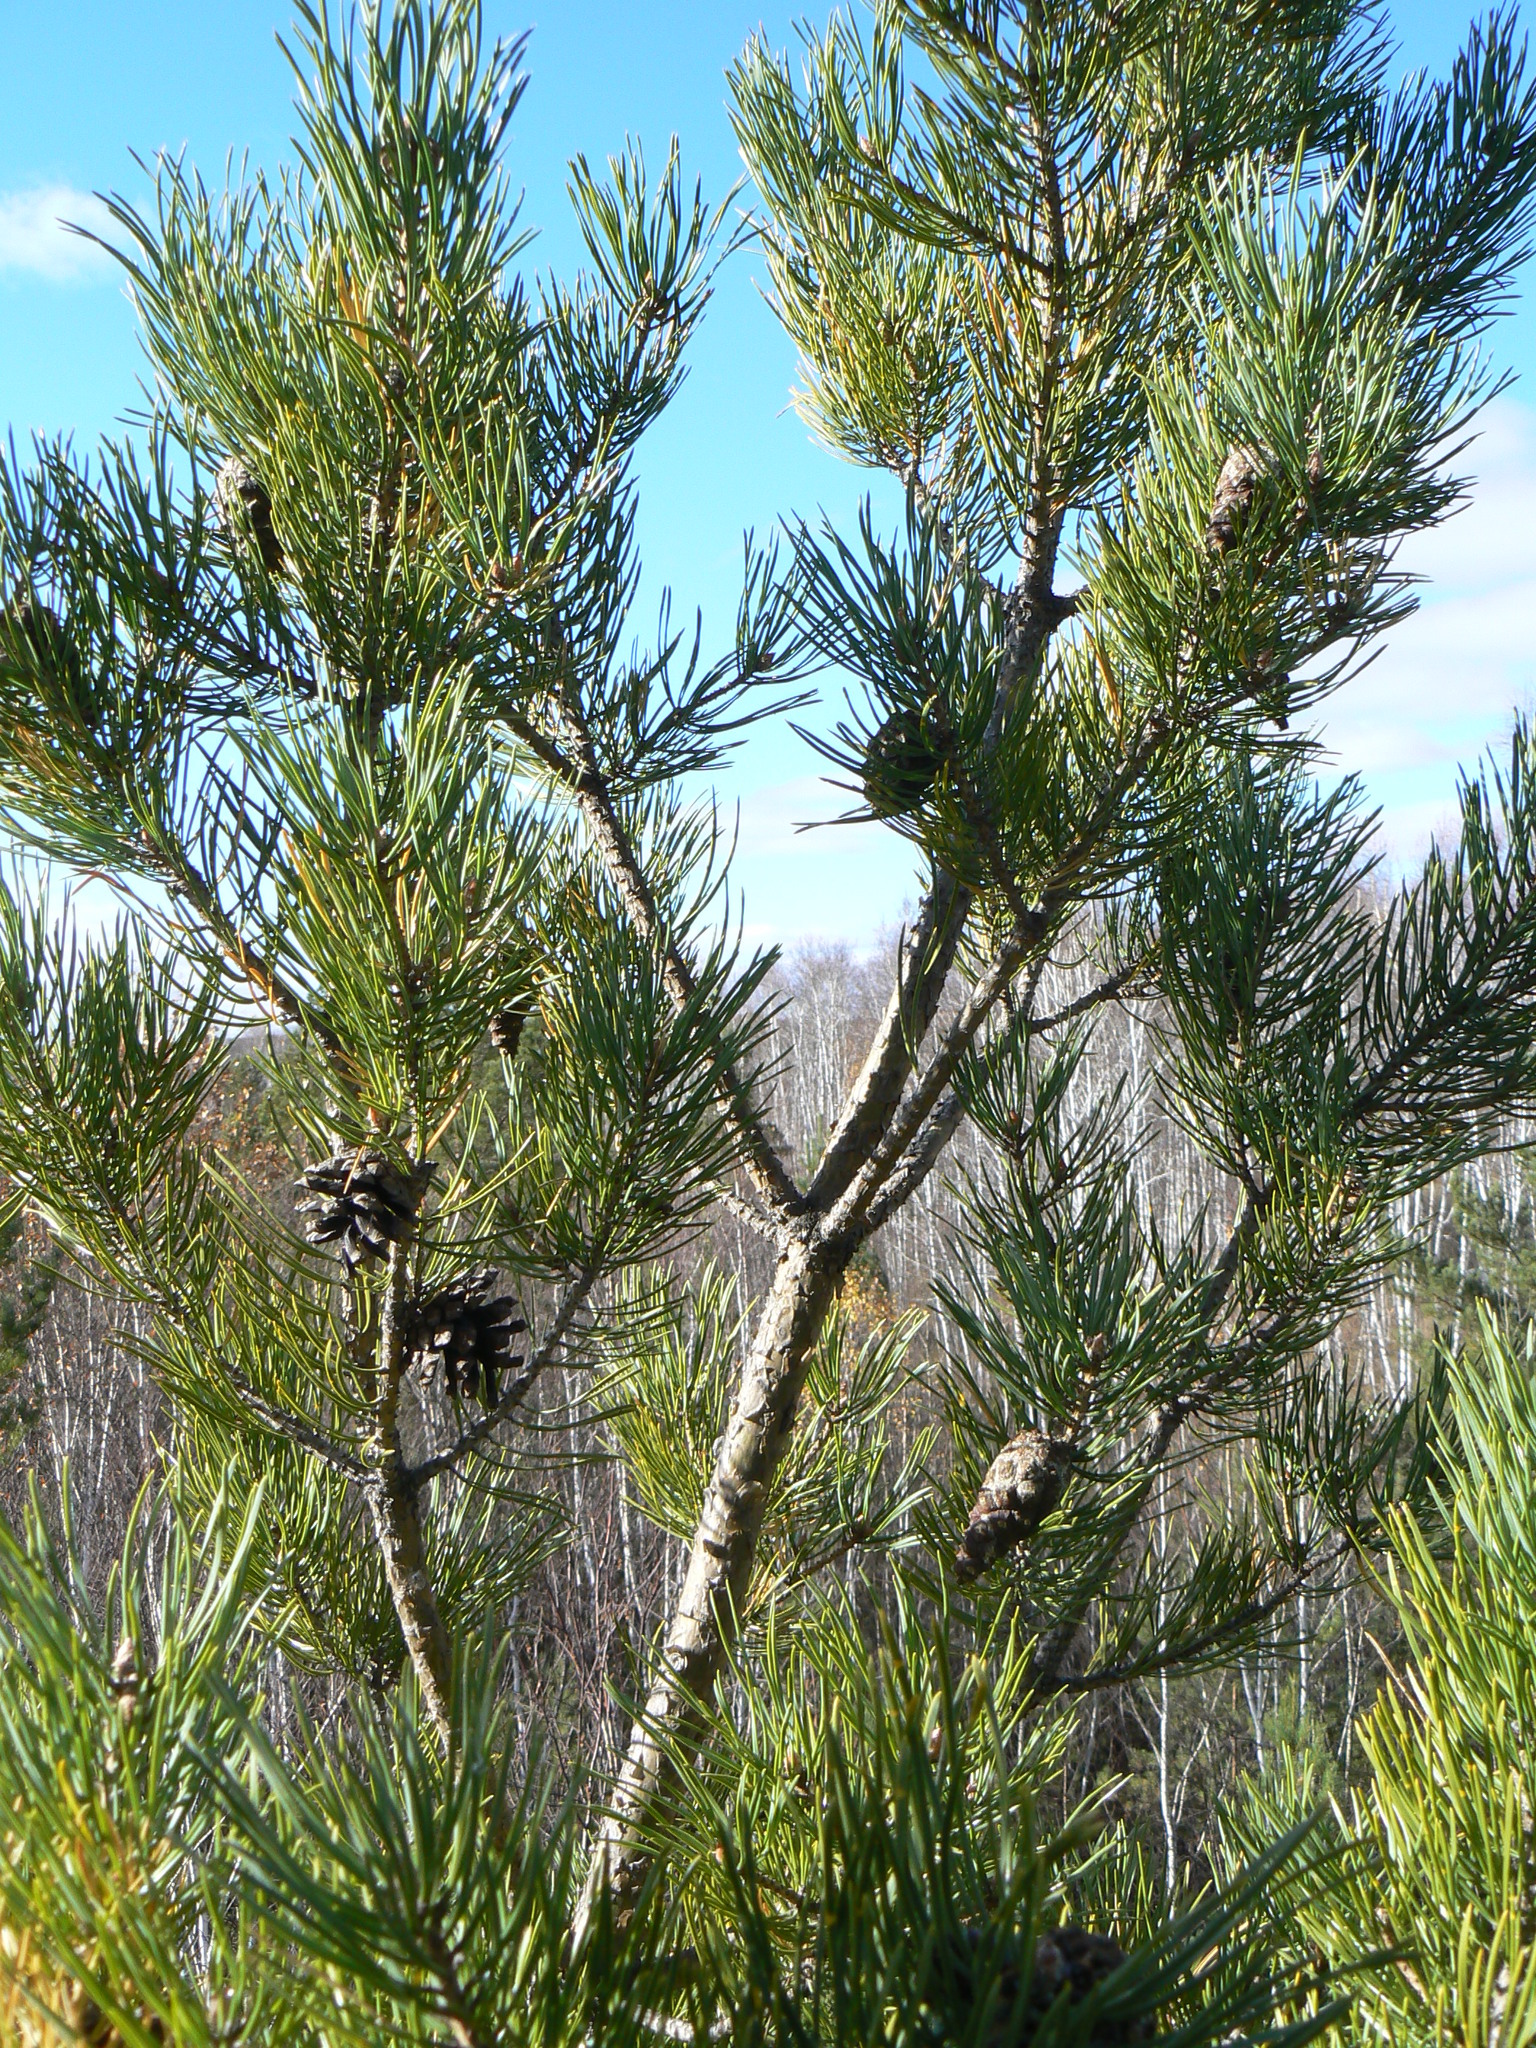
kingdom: Plantae
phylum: Tracheophyta
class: Pinopsida
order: Pinales
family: Pinaceae
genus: Pinus
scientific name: Pinus sylvestris
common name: Scots pine
